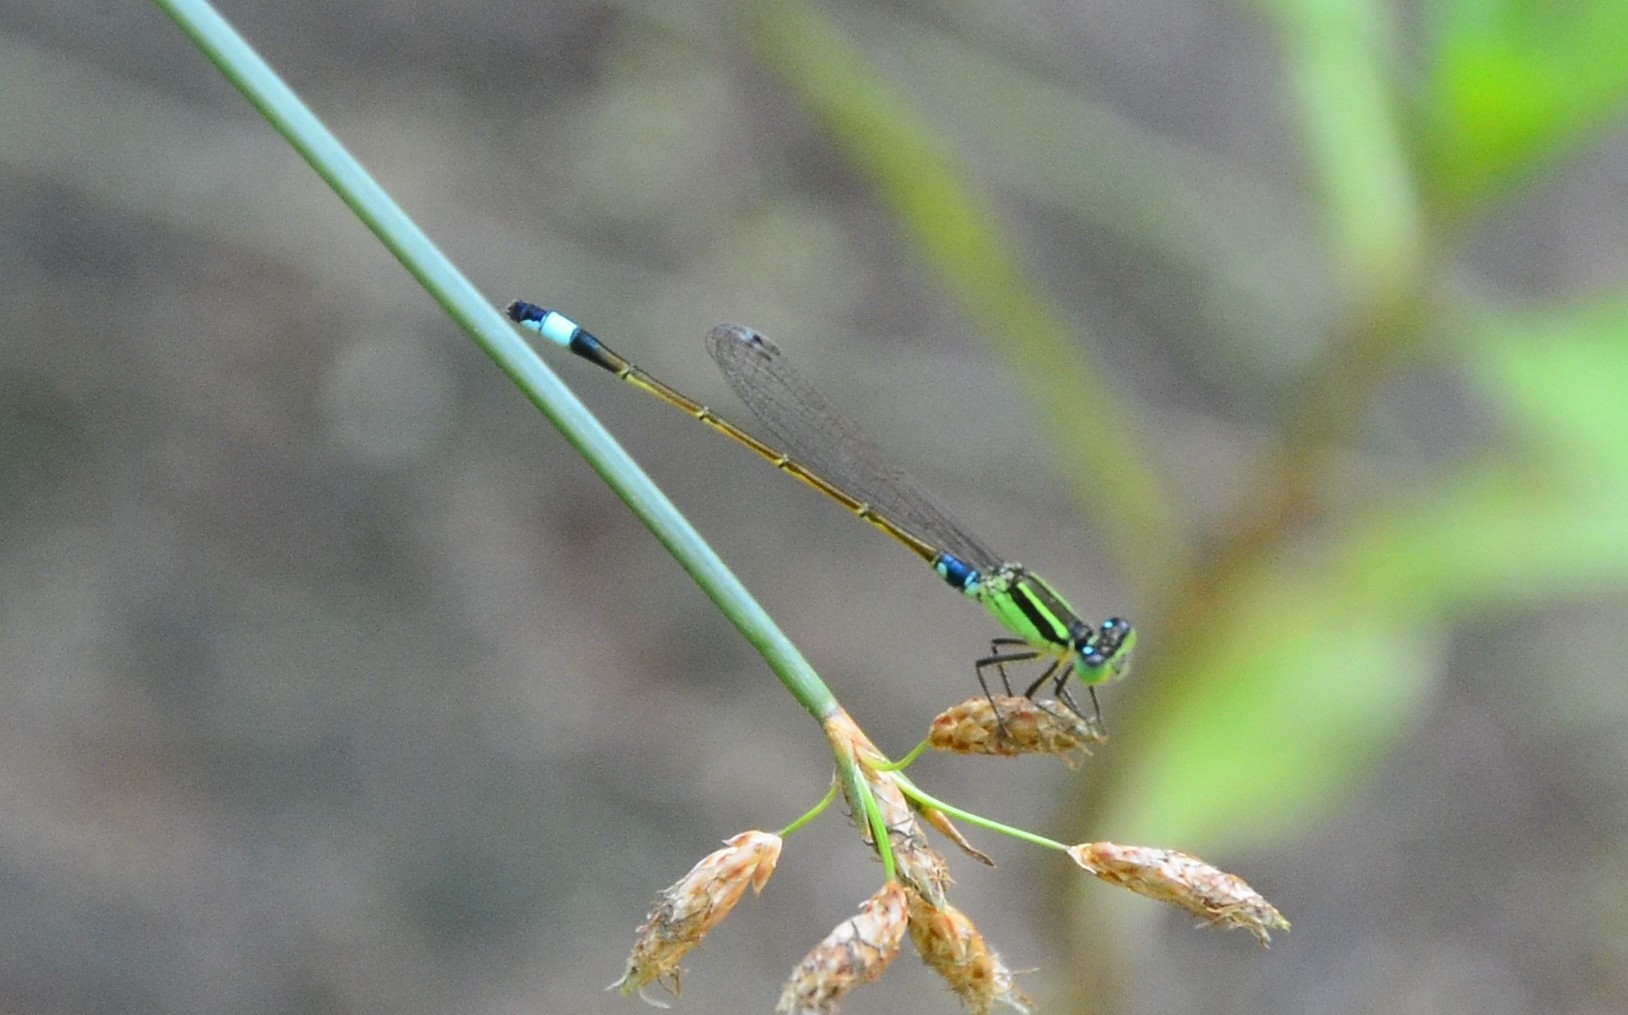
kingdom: Animalia
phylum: Arthropoda
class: Insecta
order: Odonata
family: Coenagrionidae
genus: Ischnura
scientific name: Ischnura senegalensis
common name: Tropical bluetail
